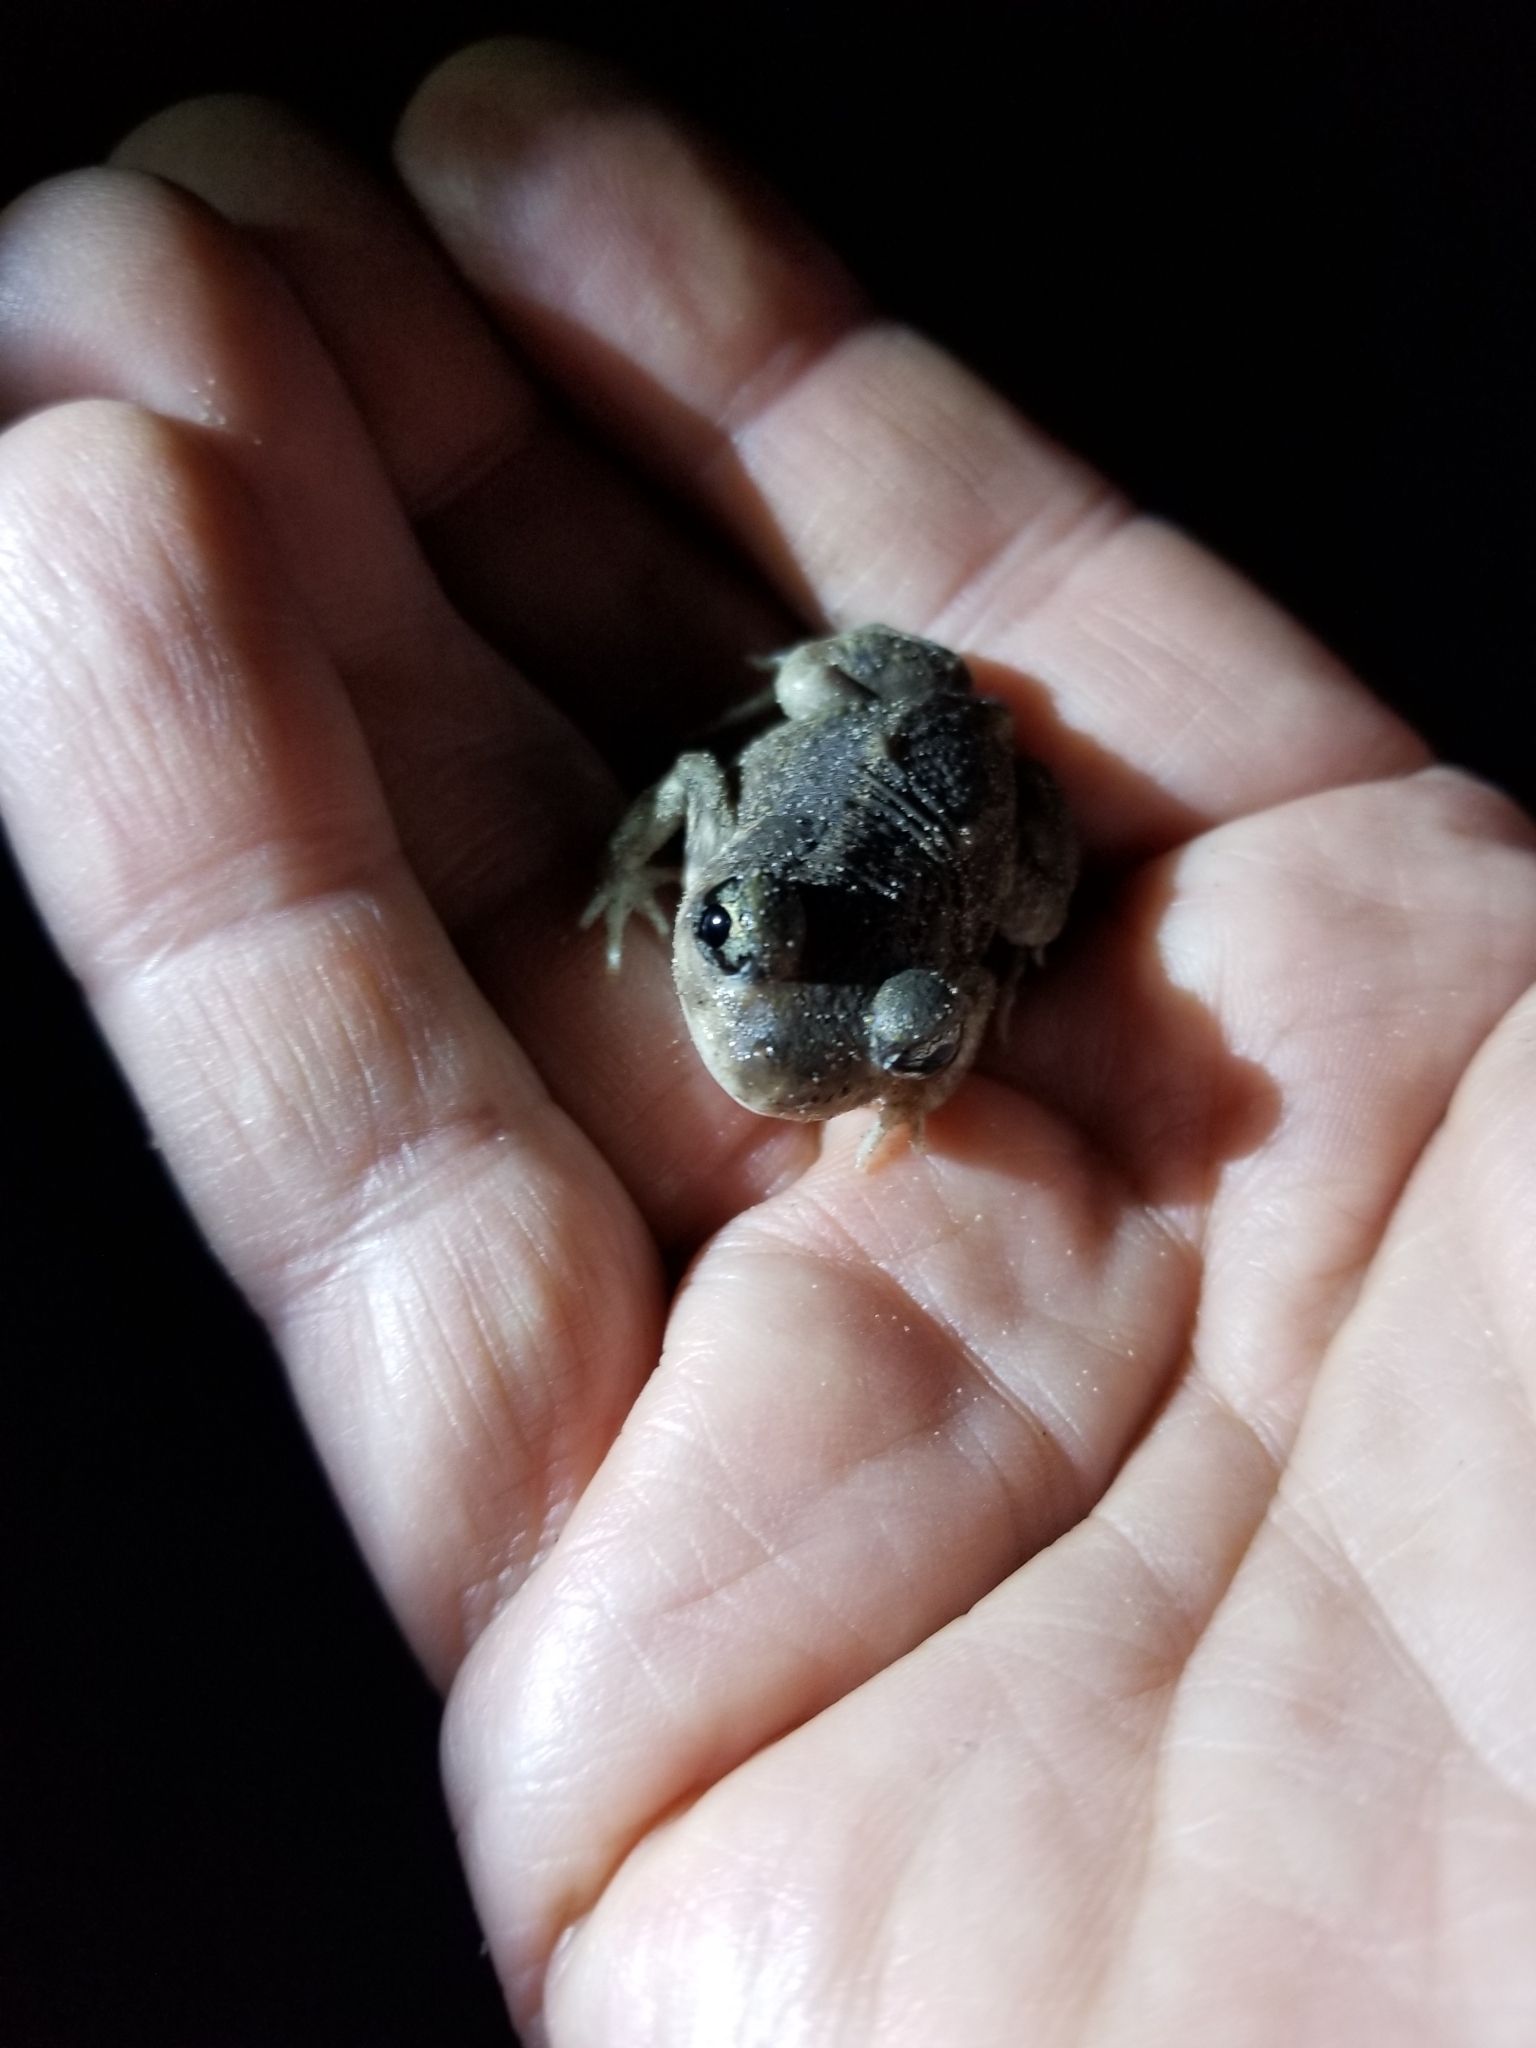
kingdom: Animalia
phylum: Chordata
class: Amphibia
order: Anura
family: Scaphiopodidae
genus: Scaphiopus
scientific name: Scaphiopus hurterii
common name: Hurter's spadefoot toad
